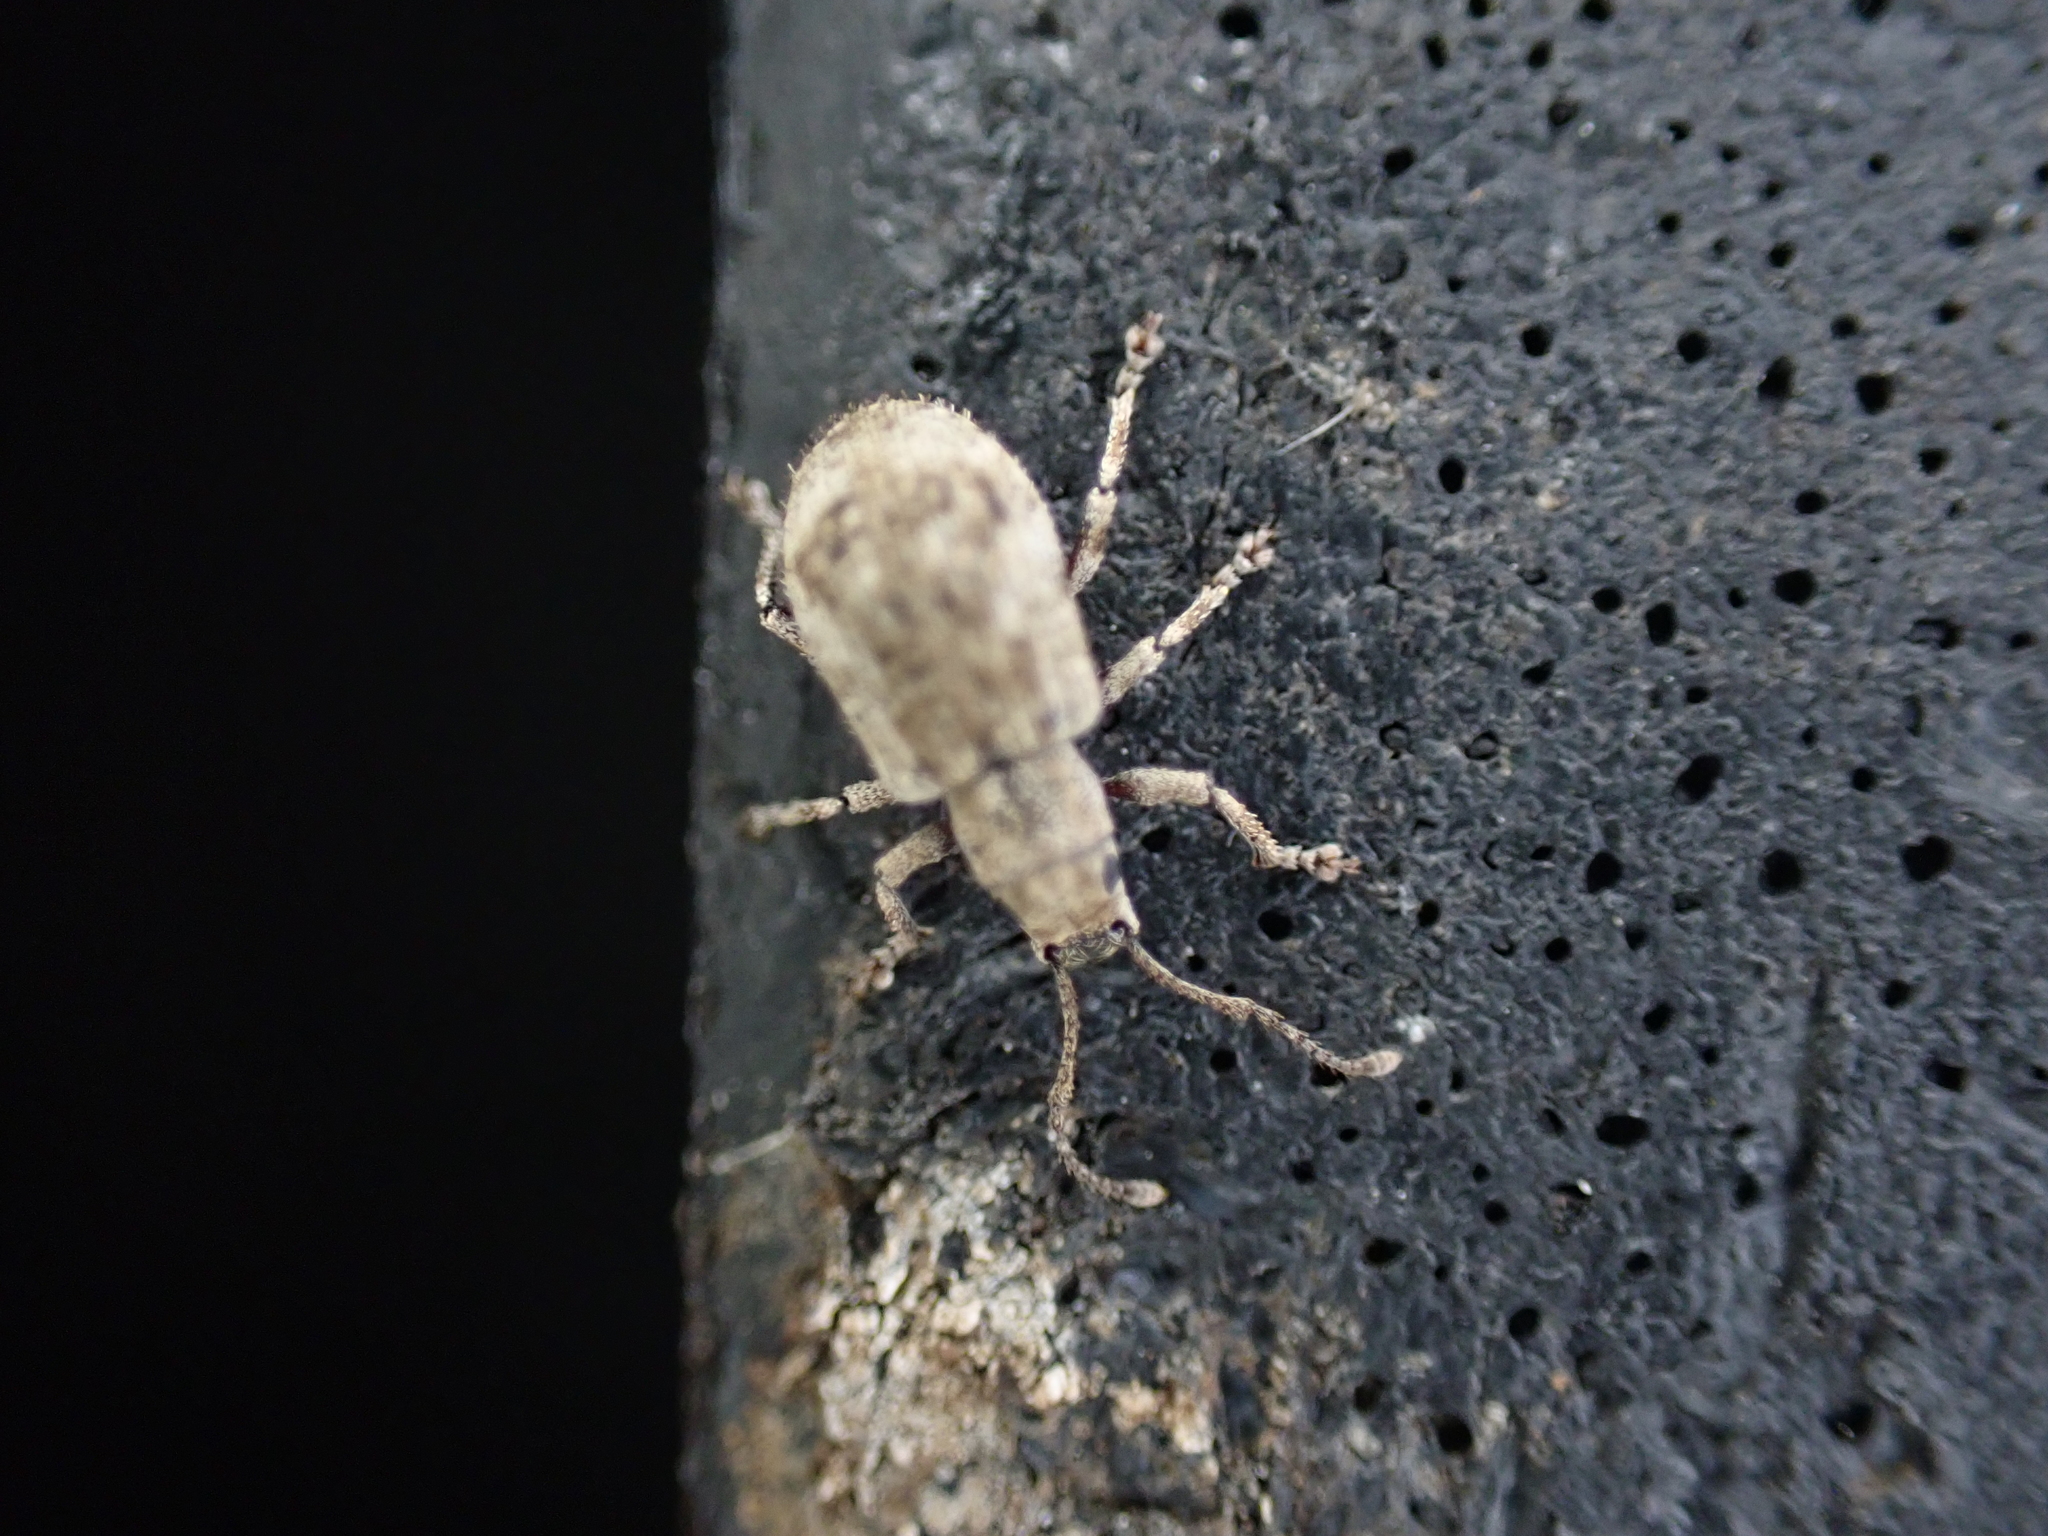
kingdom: Animalia
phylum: Arthropoda
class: Insecta
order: Coleoptera
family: Curculionidae
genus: Pseudoedophrys
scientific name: Pseudoedophrys hilleri
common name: Weevil
